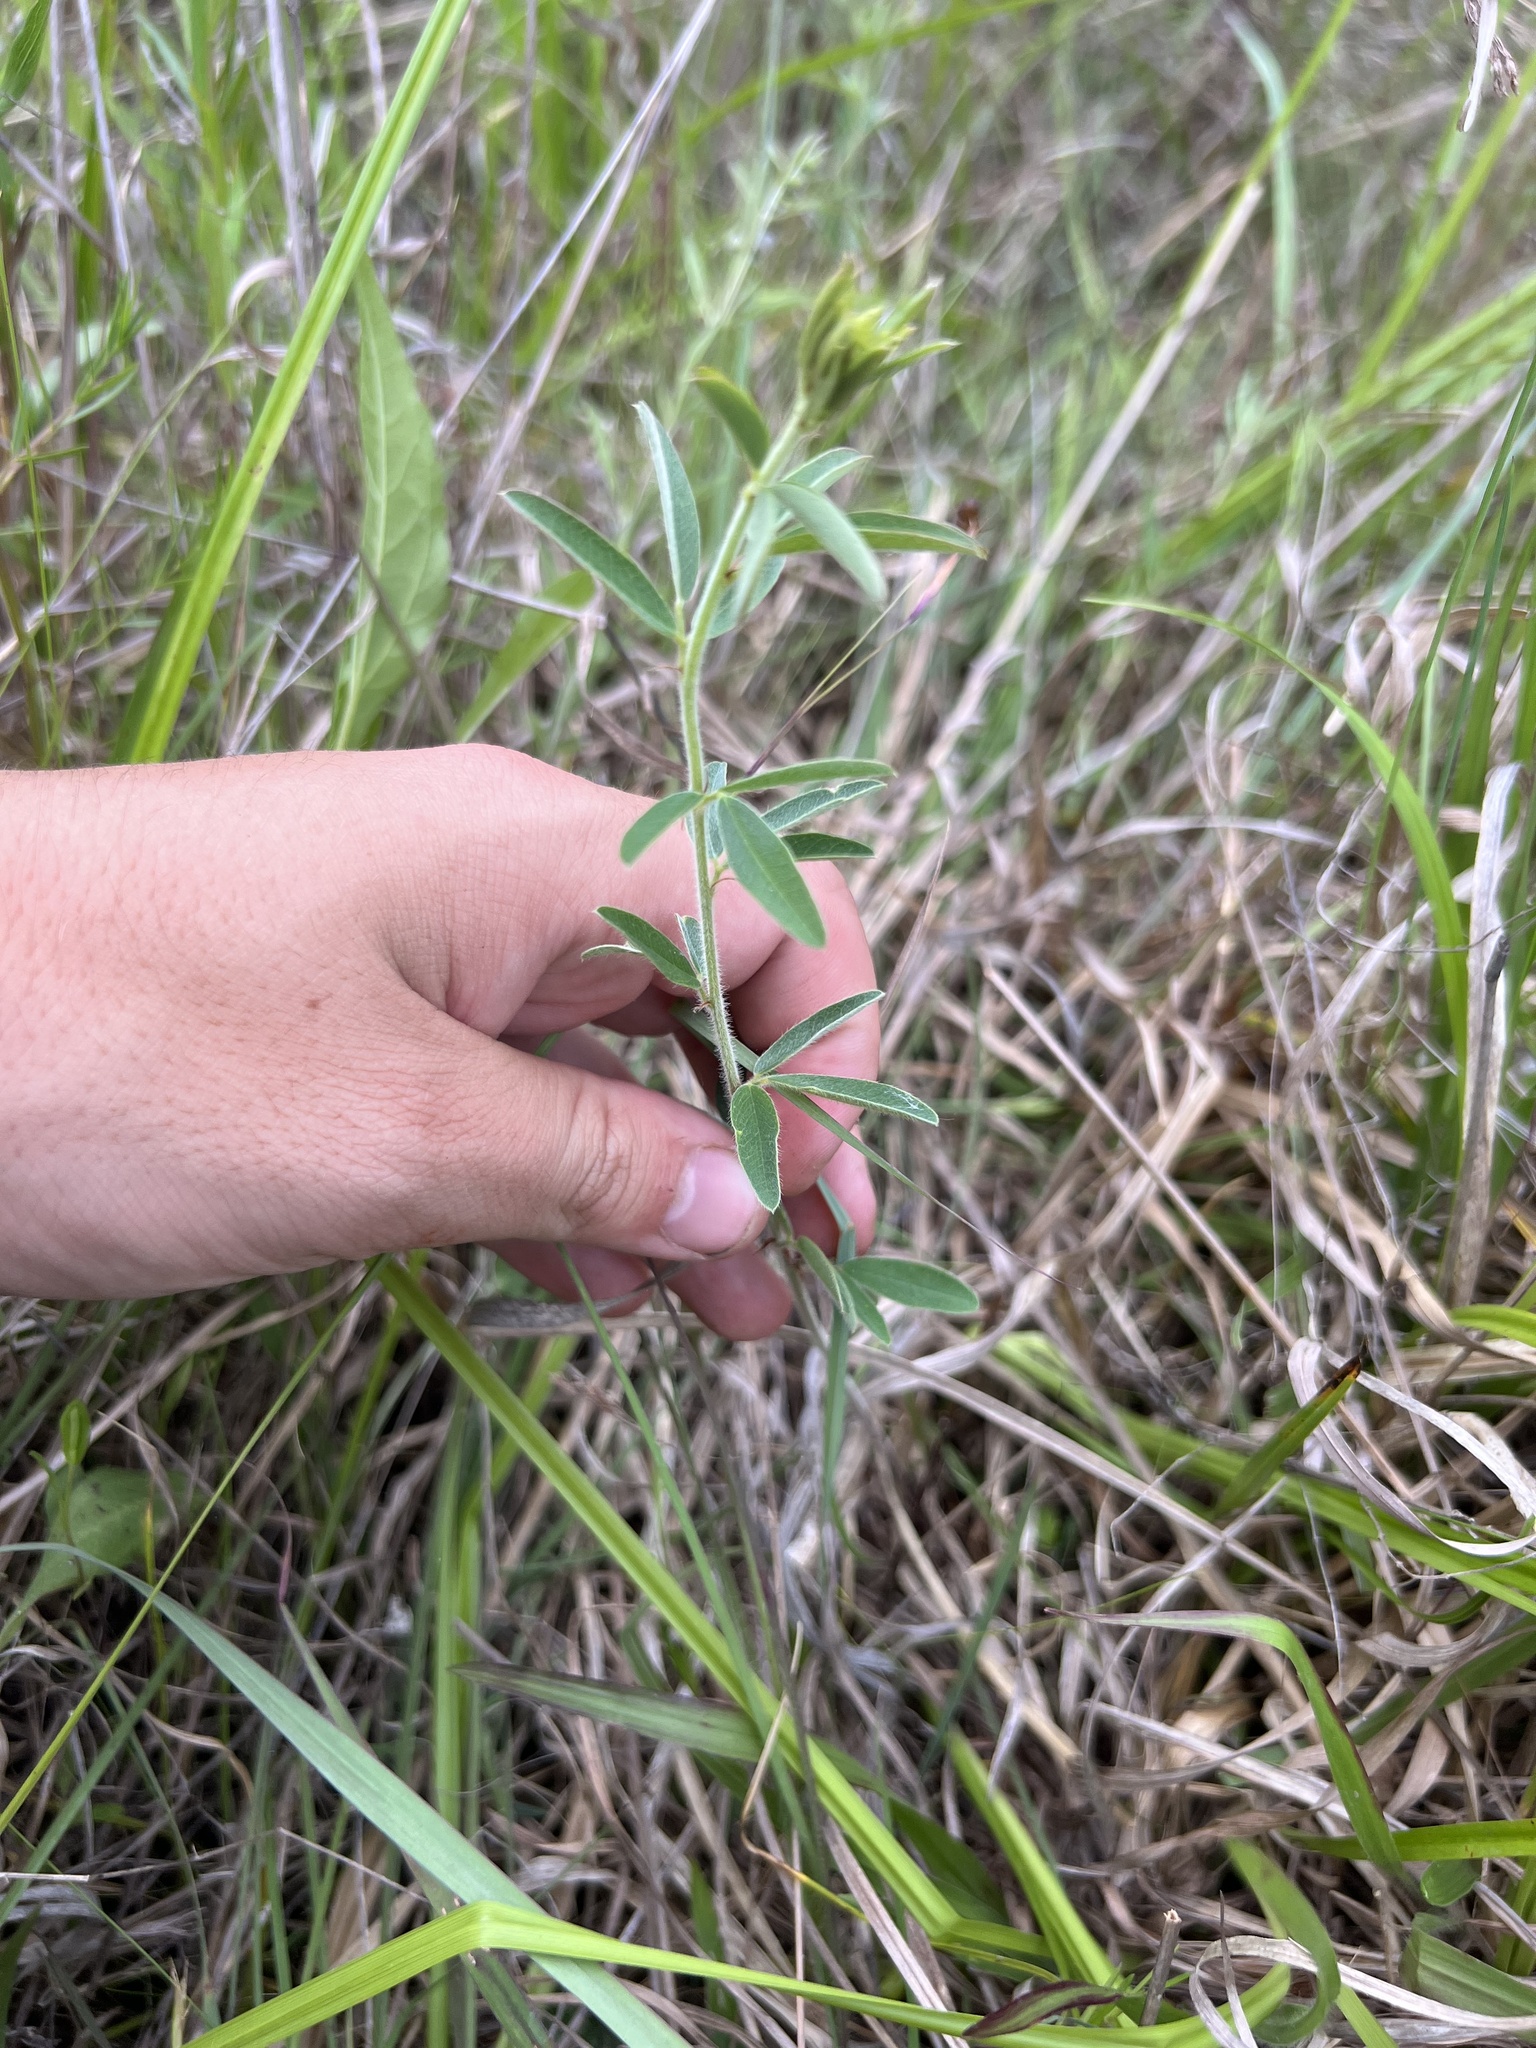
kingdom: Plantae
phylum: Tracheophyta
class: Magnoliopsida
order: Fabales
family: Fabaceae
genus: Lespedeza
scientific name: Lespedeza capitata
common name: Dusty clover
